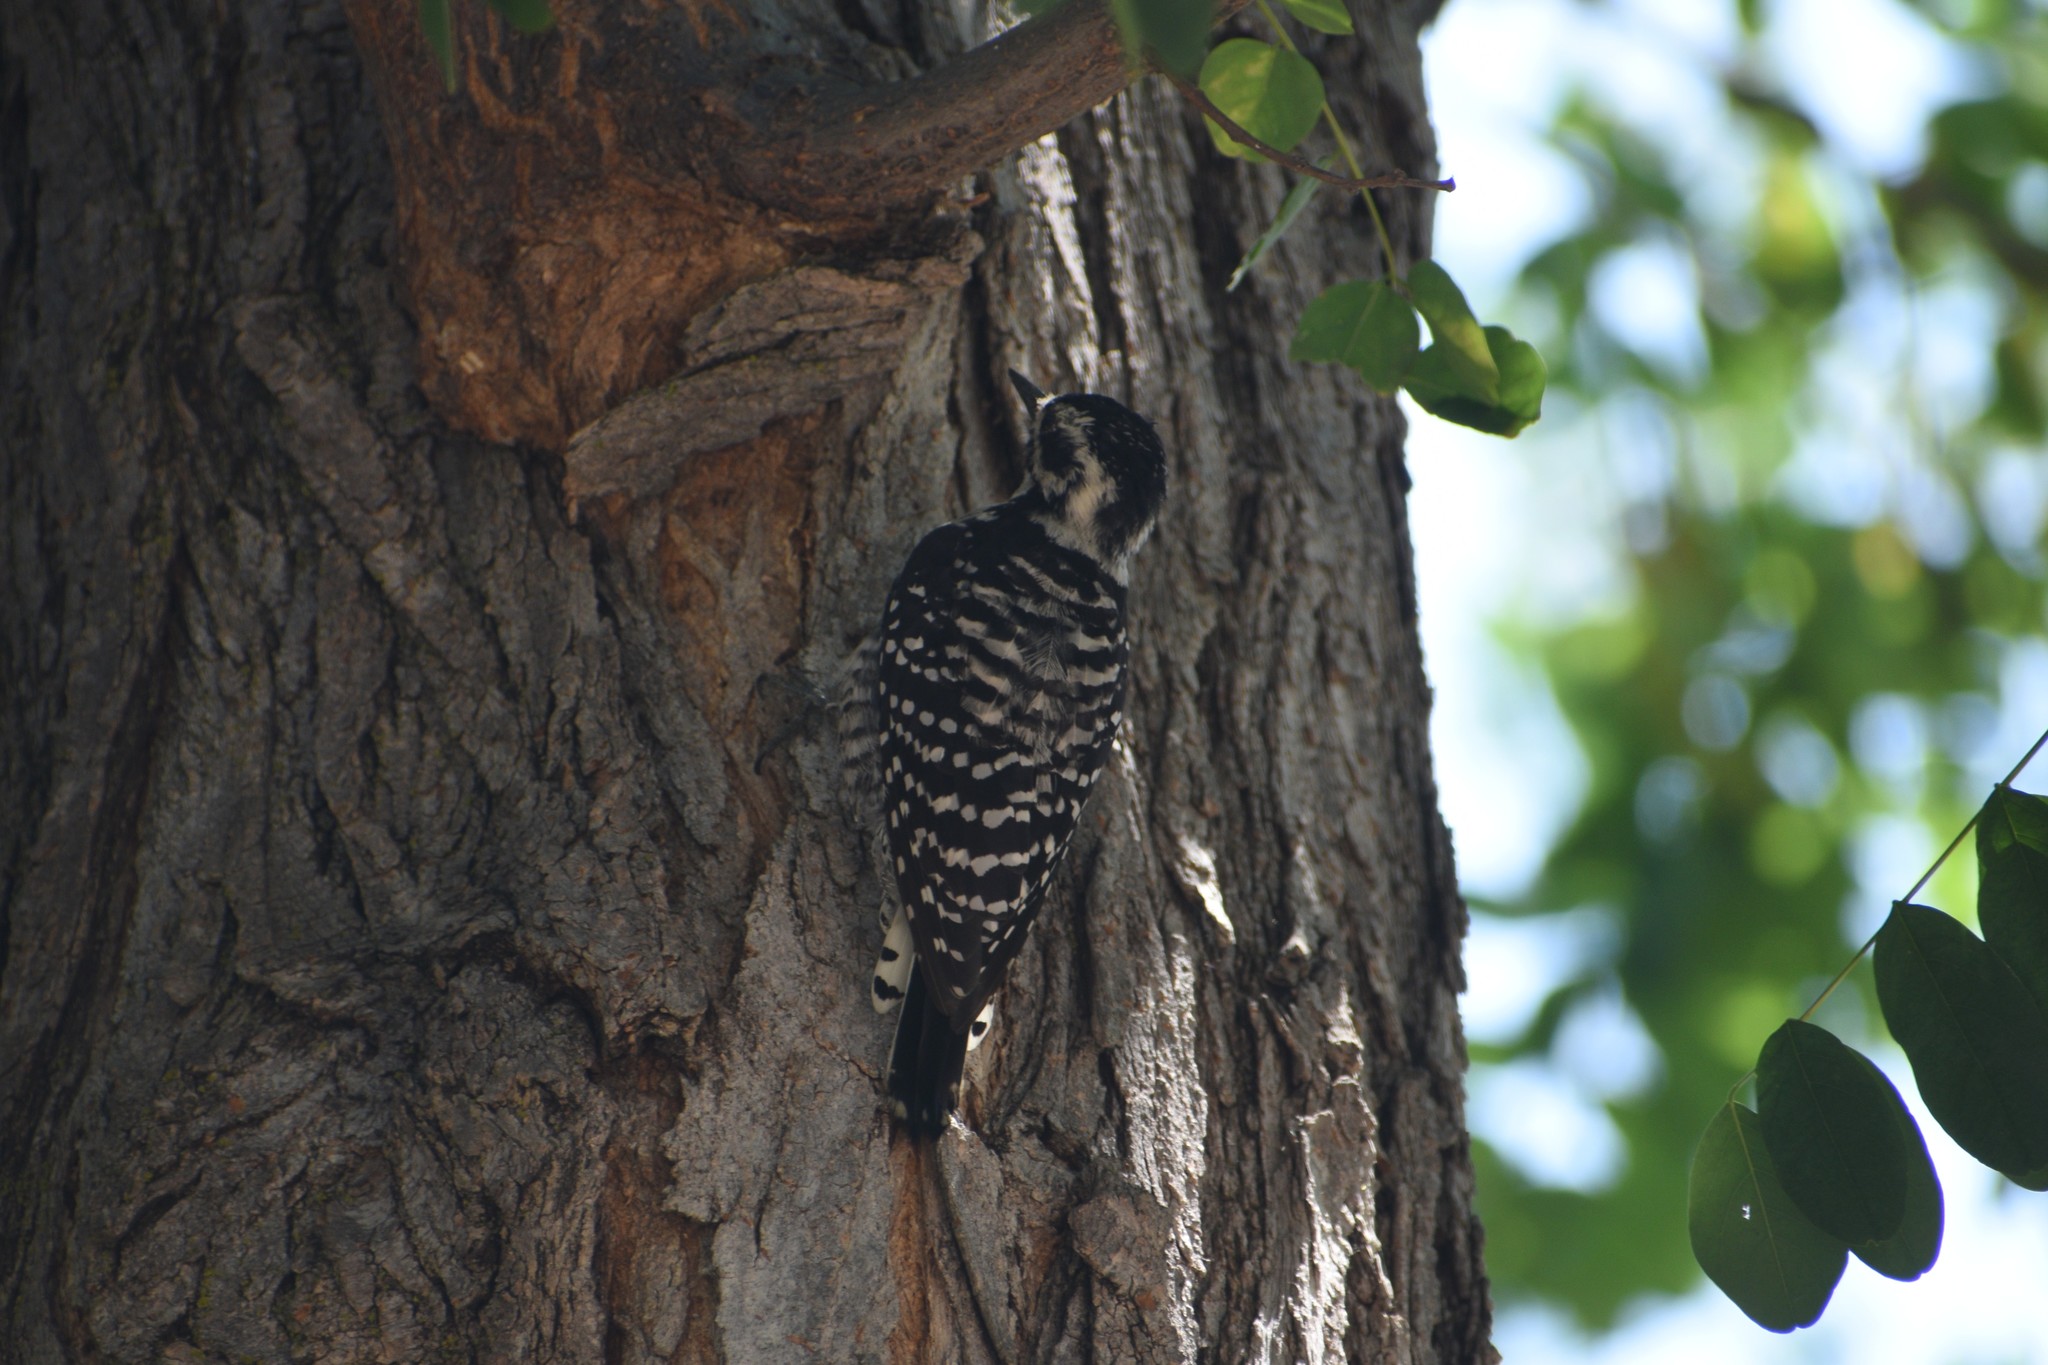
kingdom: Animalia
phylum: Chordata
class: Aves
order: Piciformes
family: Picidae
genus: Dryobates
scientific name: Dryobates nuttallii
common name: Nuttall's woodpecker
